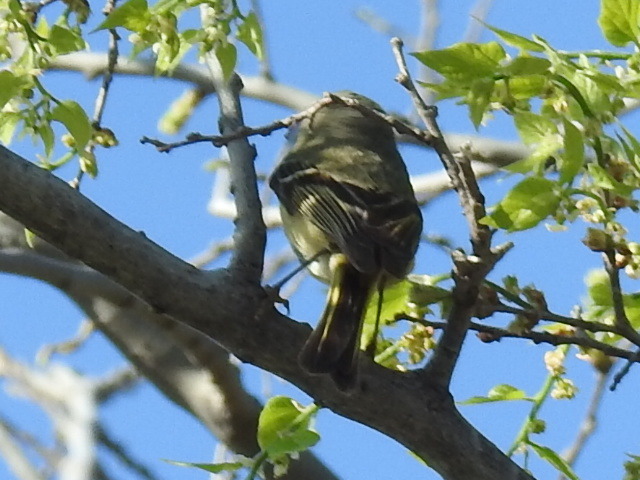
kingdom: Animalia
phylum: Chordata
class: Aves
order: Passeriformes
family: Regulidae
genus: Regulus
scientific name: Regulus calendula
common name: Ruby-crowned kinglet
